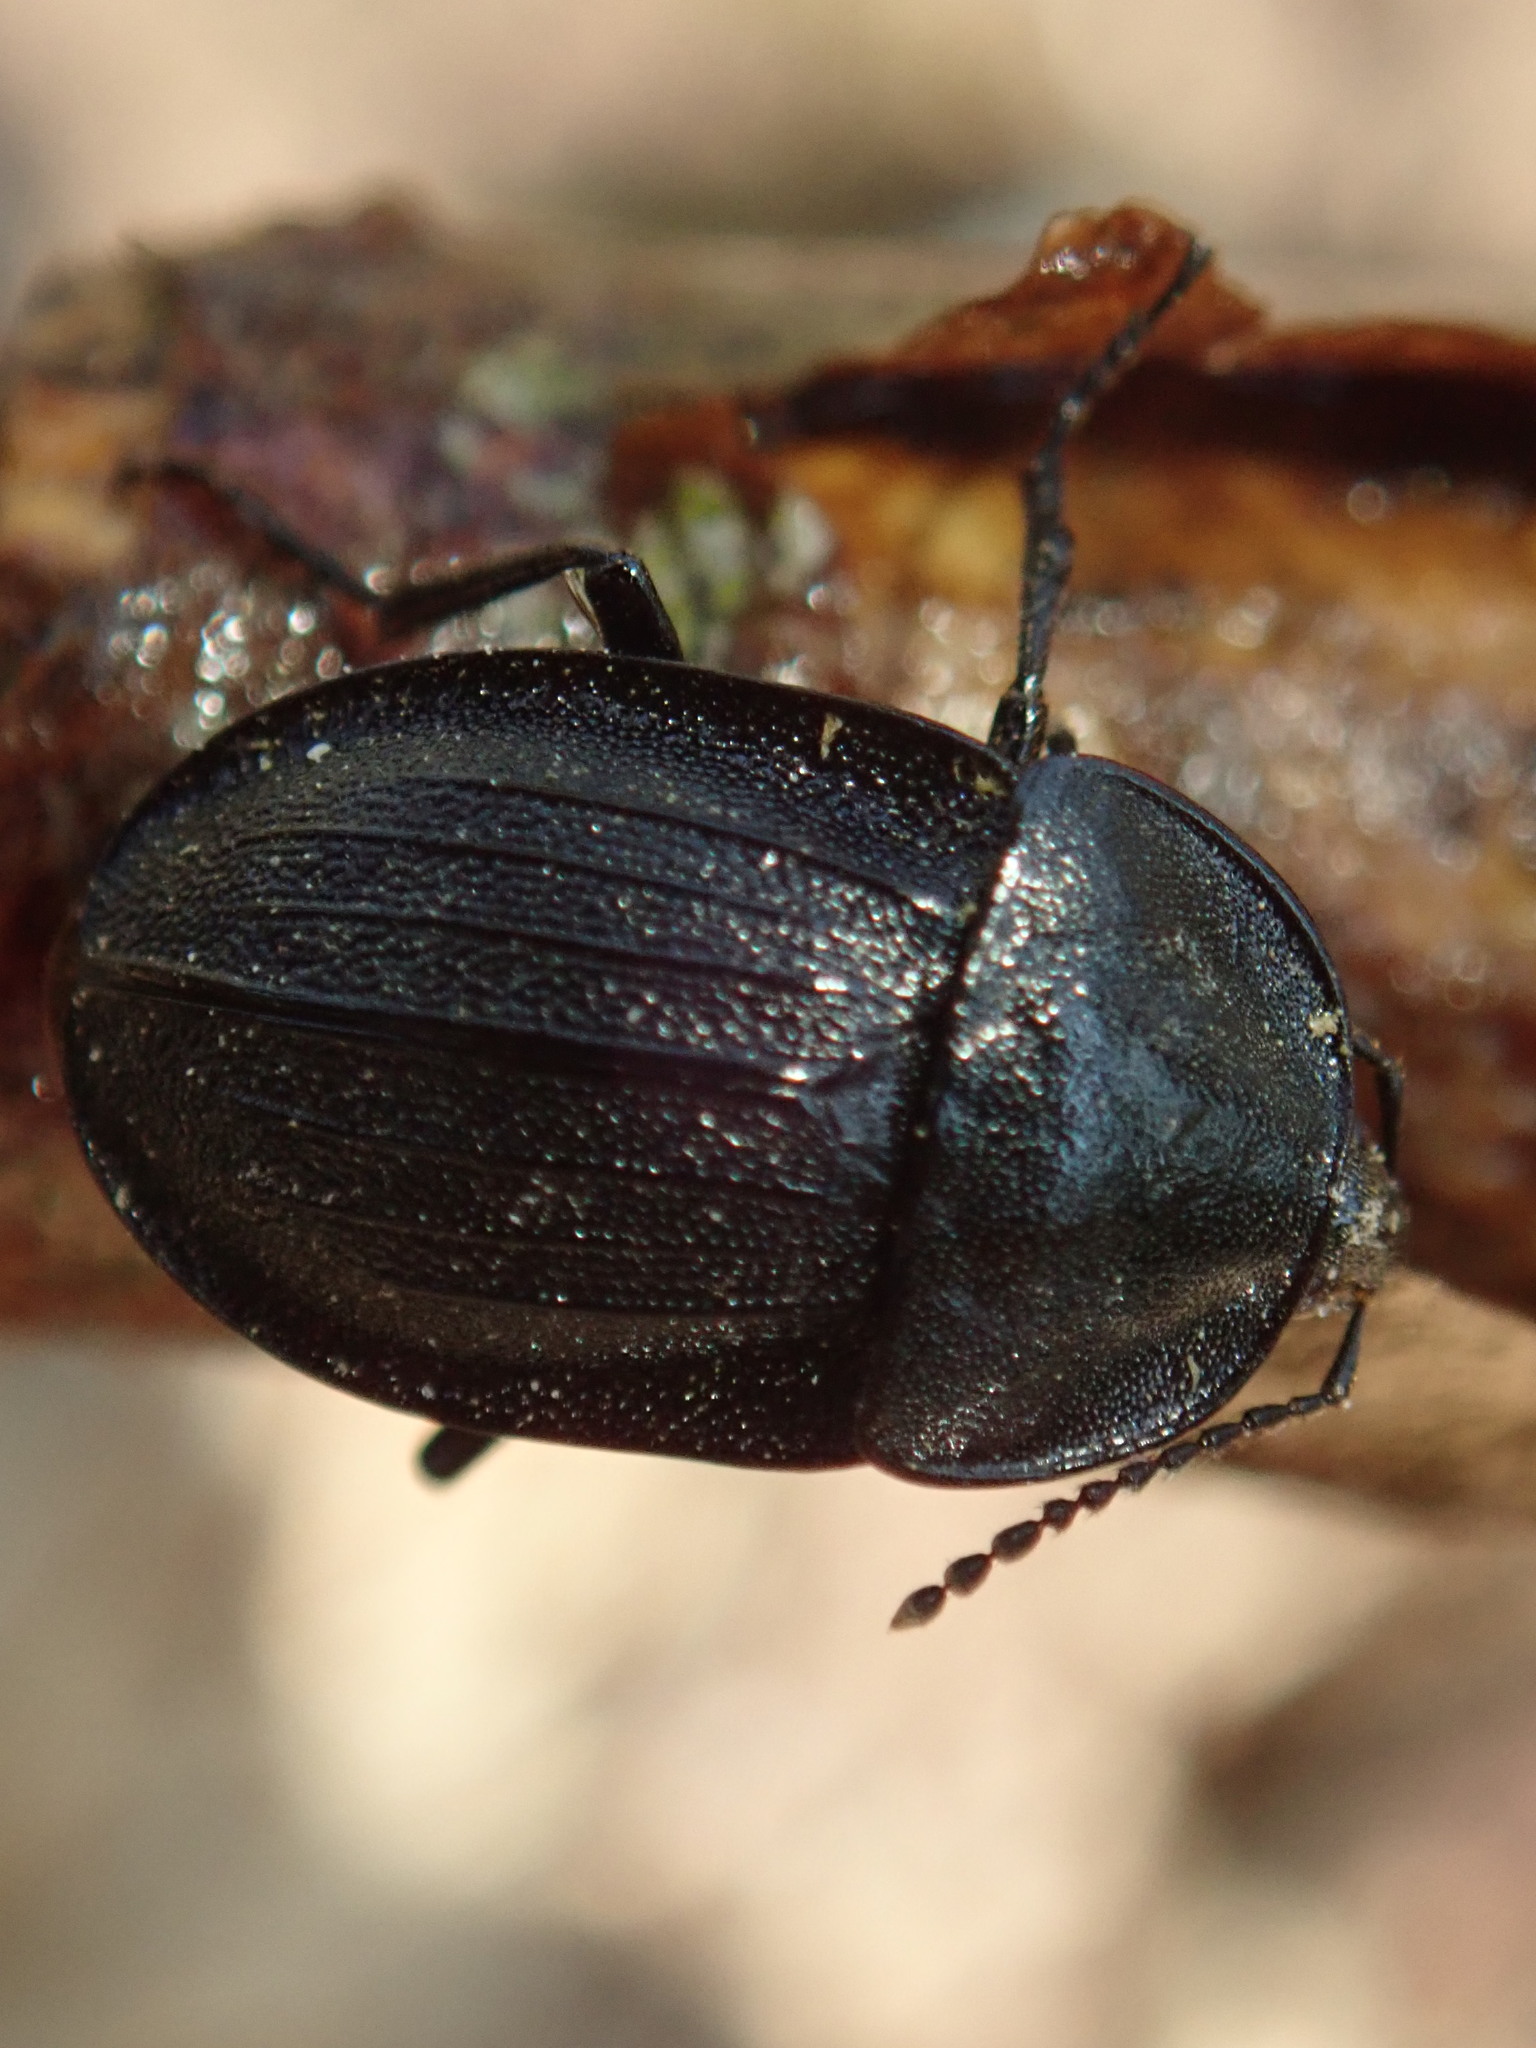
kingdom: Animalia
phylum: Arthropoda
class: Insecta
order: Coleoptera
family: Staphylinidae
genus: Silpha
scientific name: Silpha atrata
